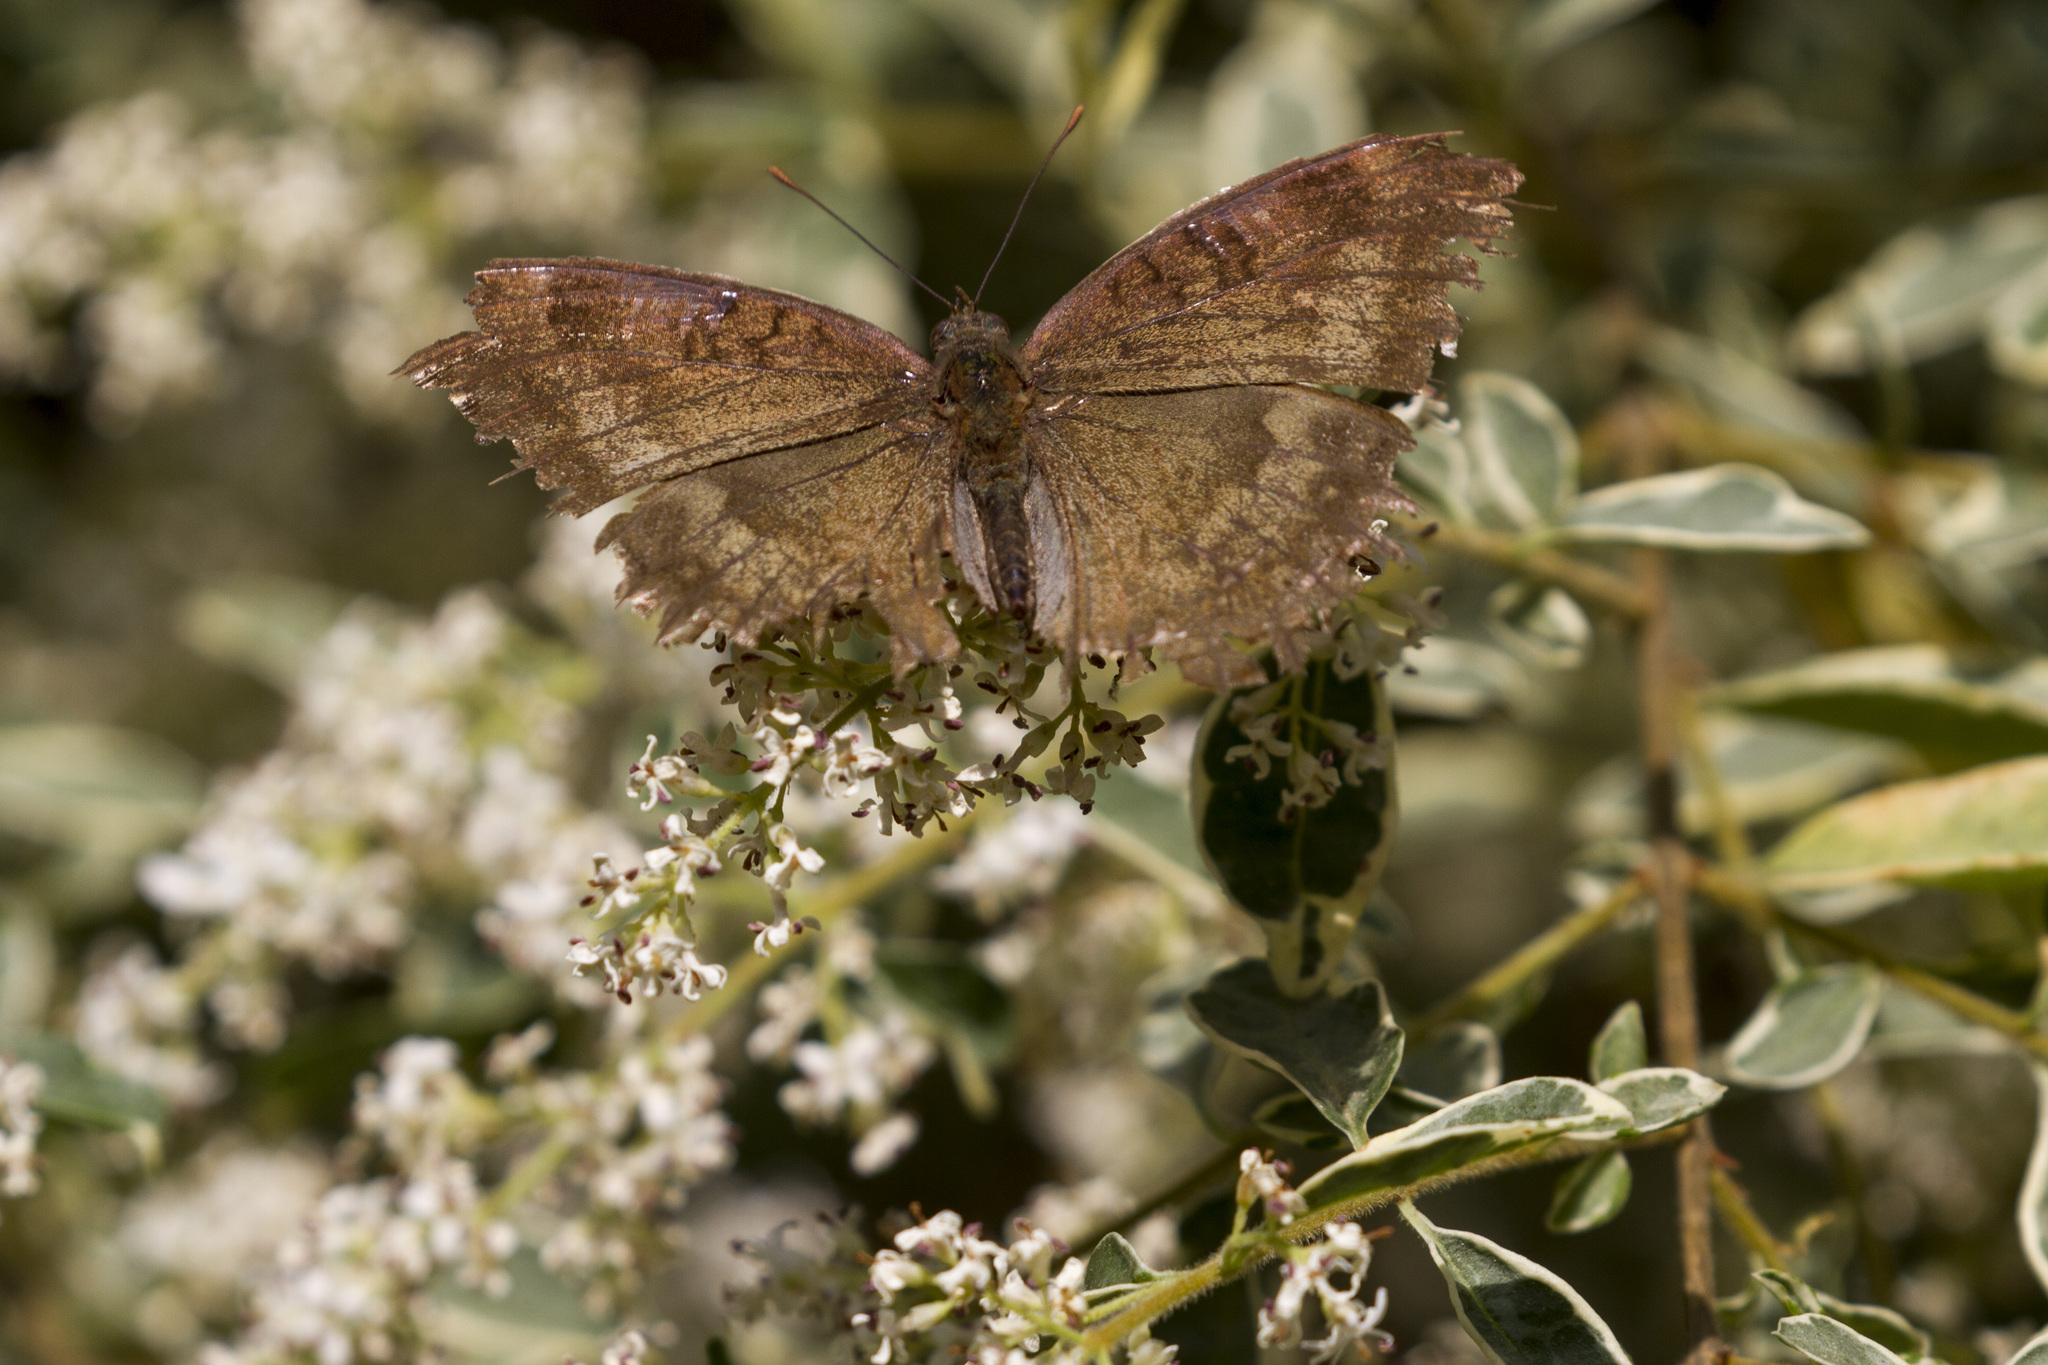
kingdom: Animalia
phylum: Arthropoda
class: Insecta
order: Lepidoptera
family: Nymphalidae
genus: Junonia
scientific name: Junonia iphita
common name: Chocolate pansy
